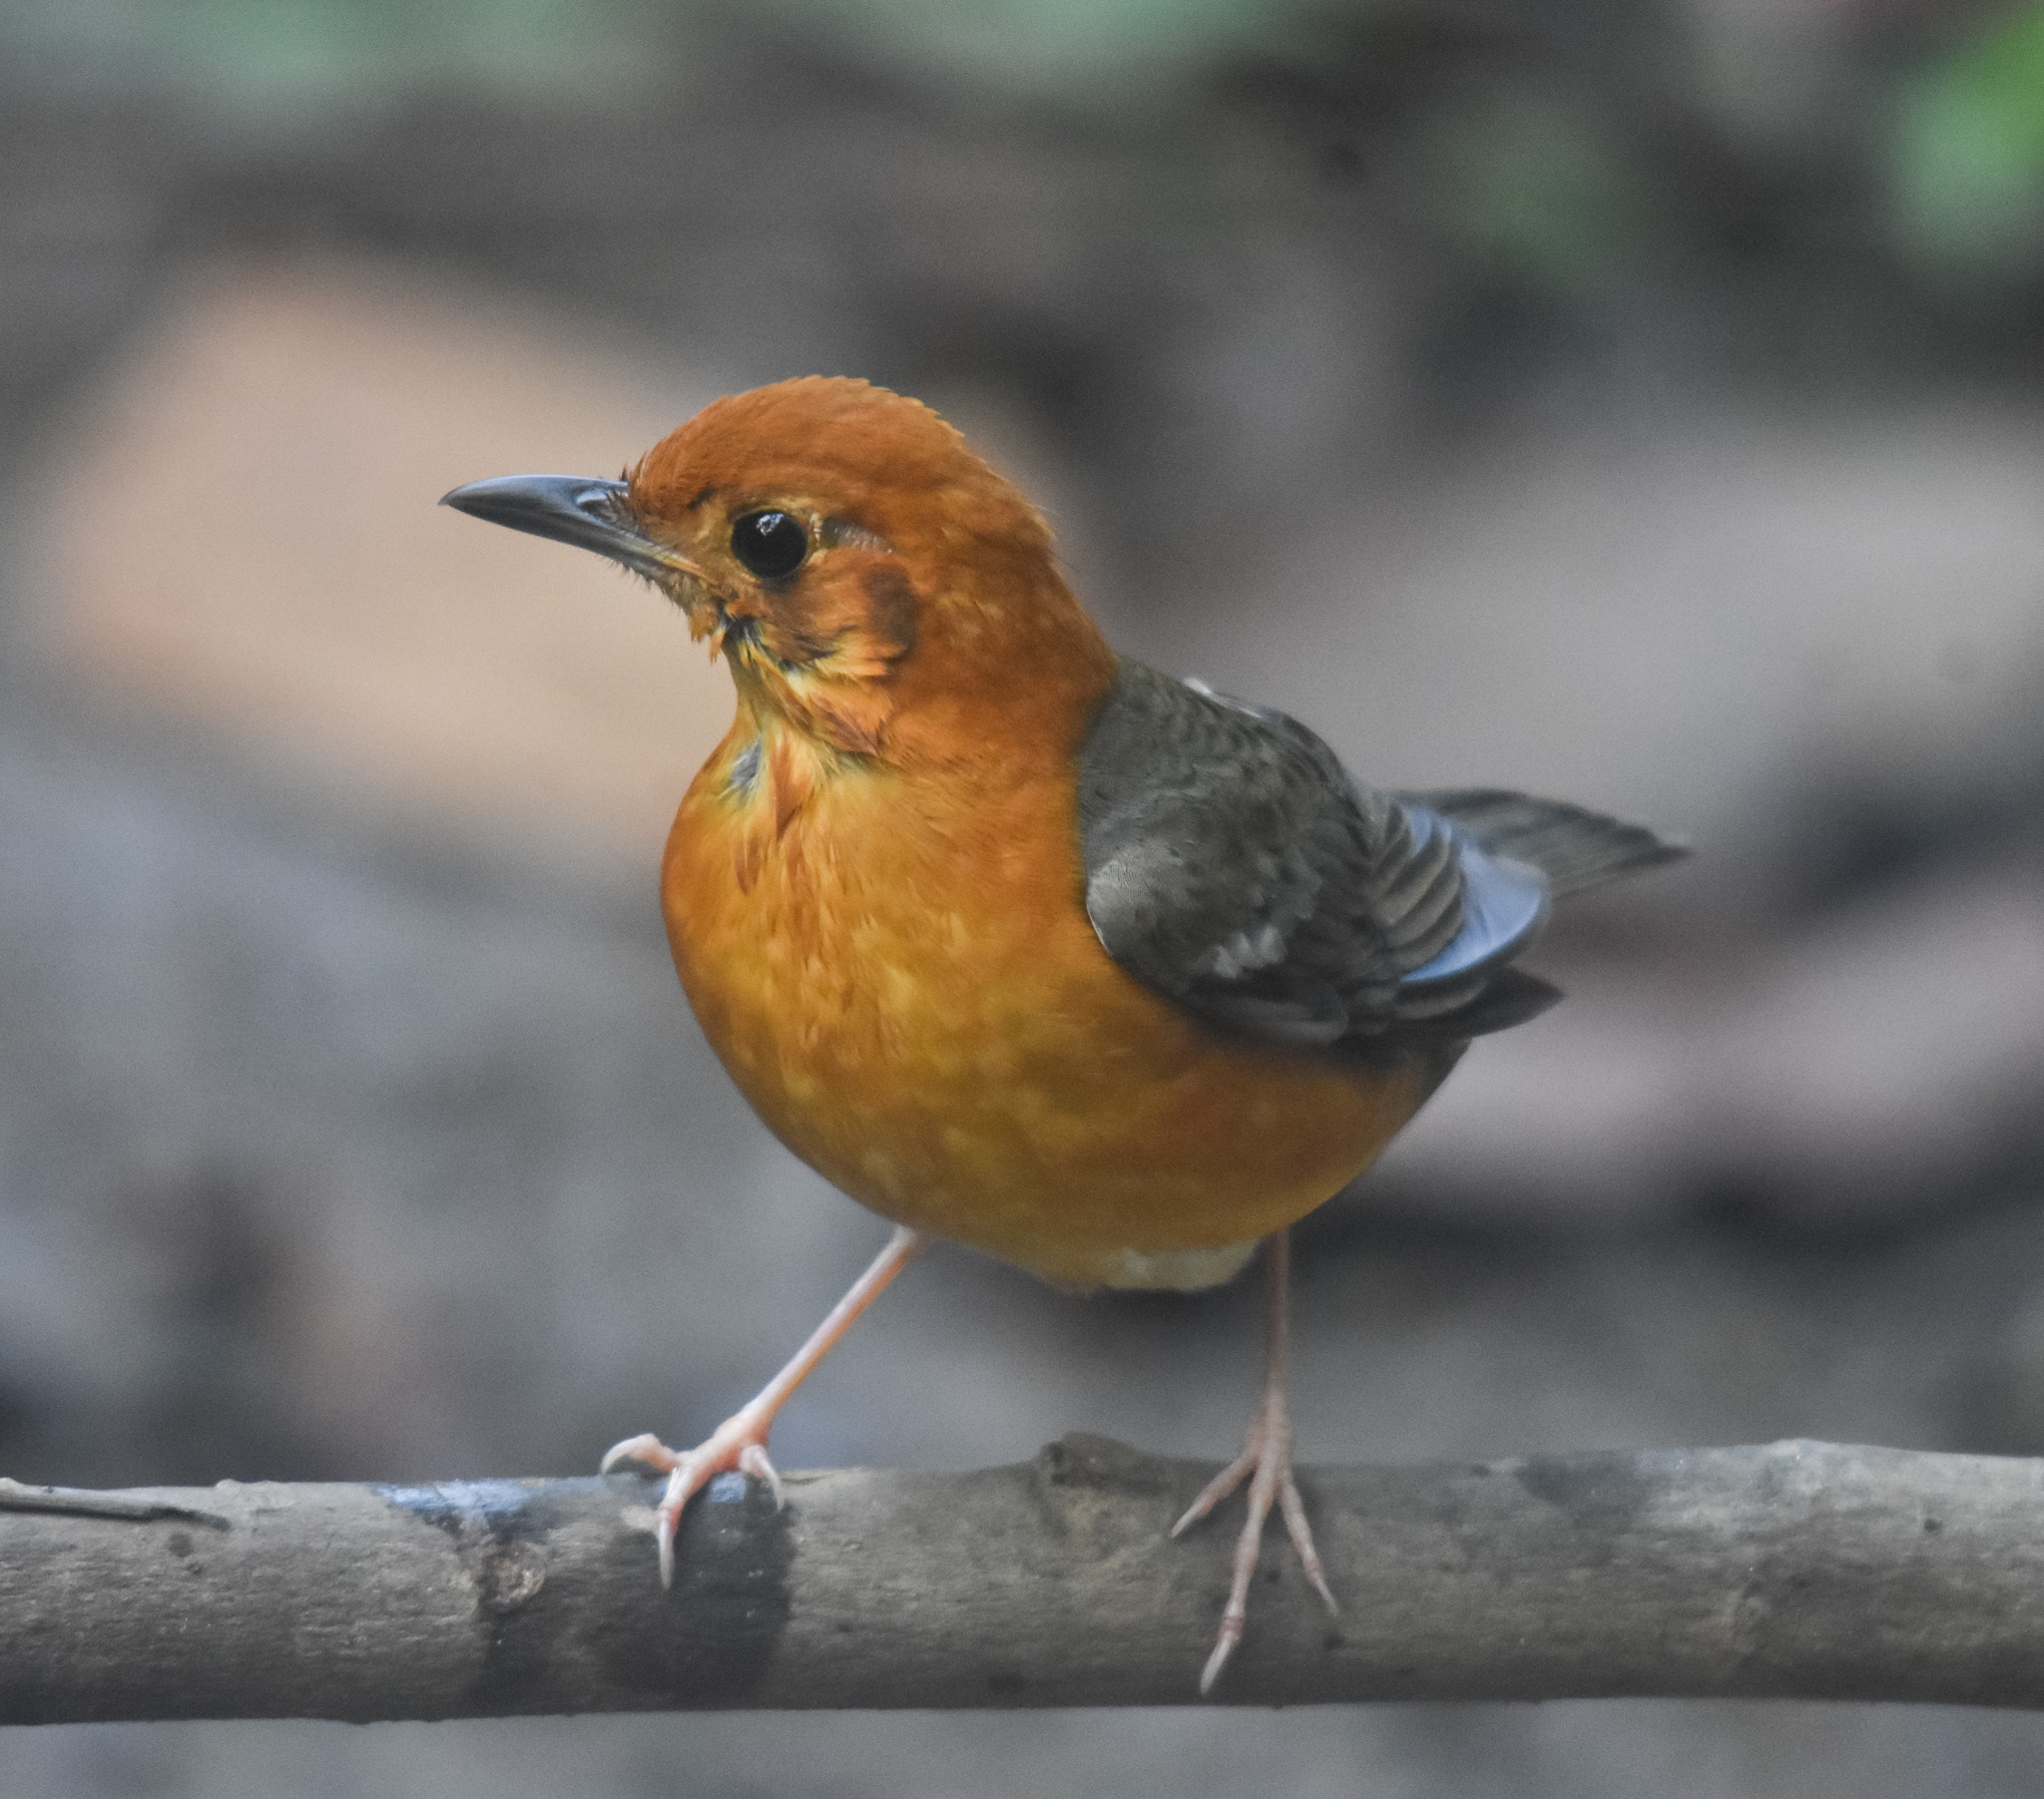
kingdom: Animalia
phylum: Chordata
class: Aves
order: Passeriformes
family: Turdidae
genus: Geokichla
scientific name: Geokichla citrina
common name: Orange-headed thrush
